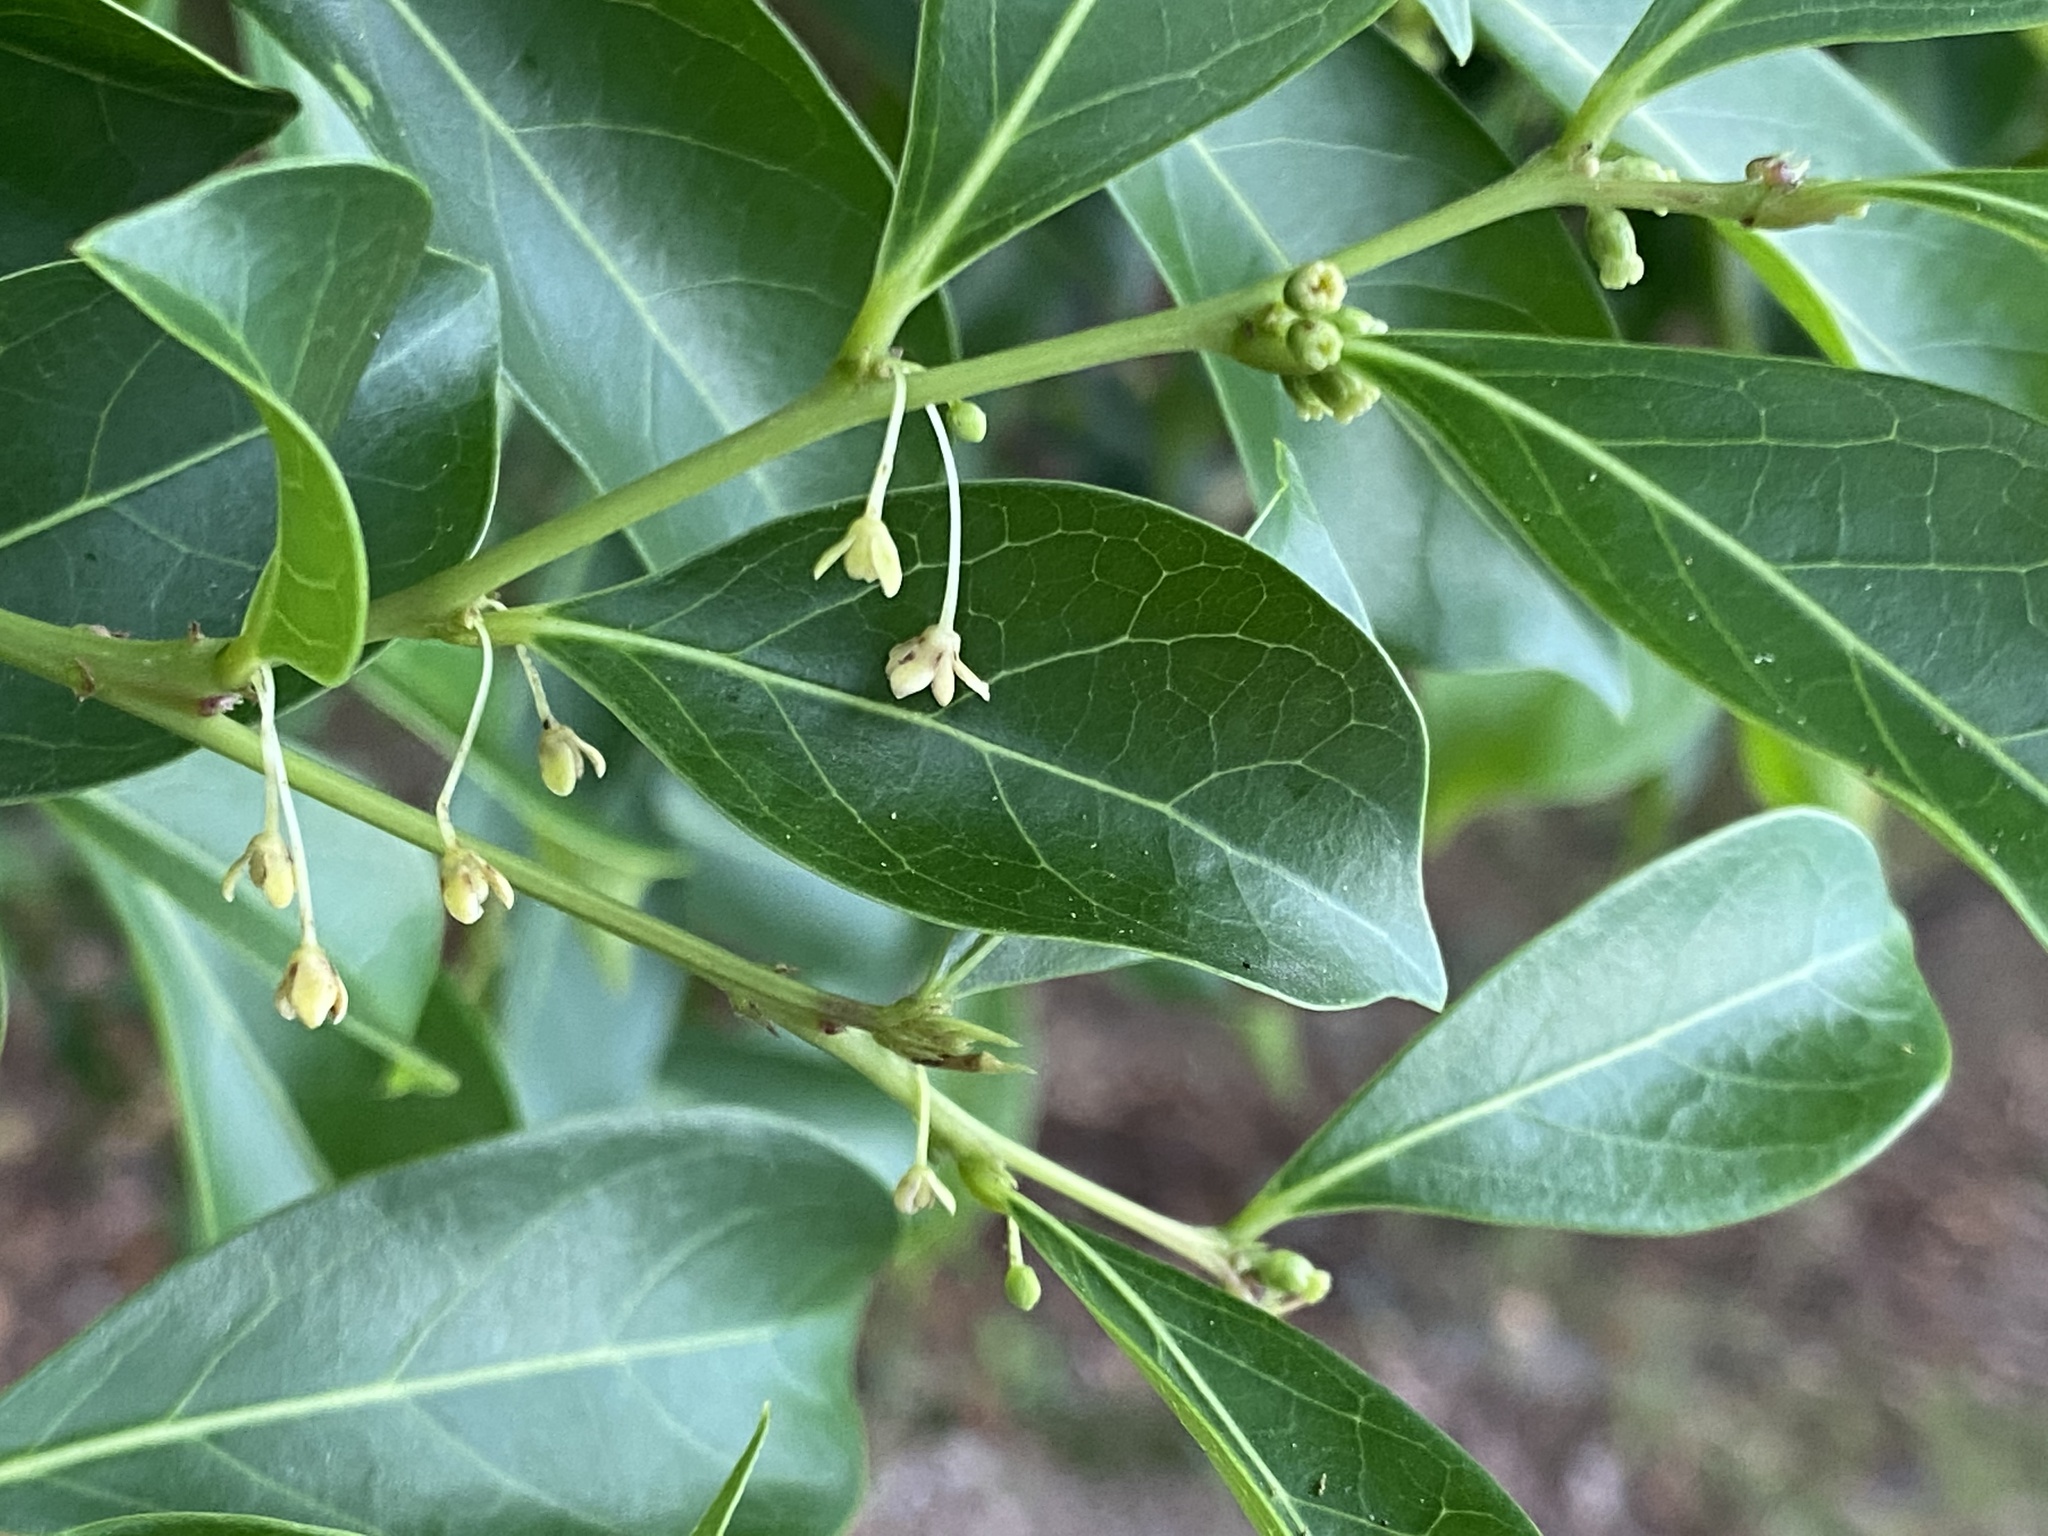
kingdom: Plantae
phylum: Tracheophyta
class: Magnoliopsida
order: Malpighiales
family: Phyllanthaceae
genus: Glochidion
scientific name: Glochidion rubrum
